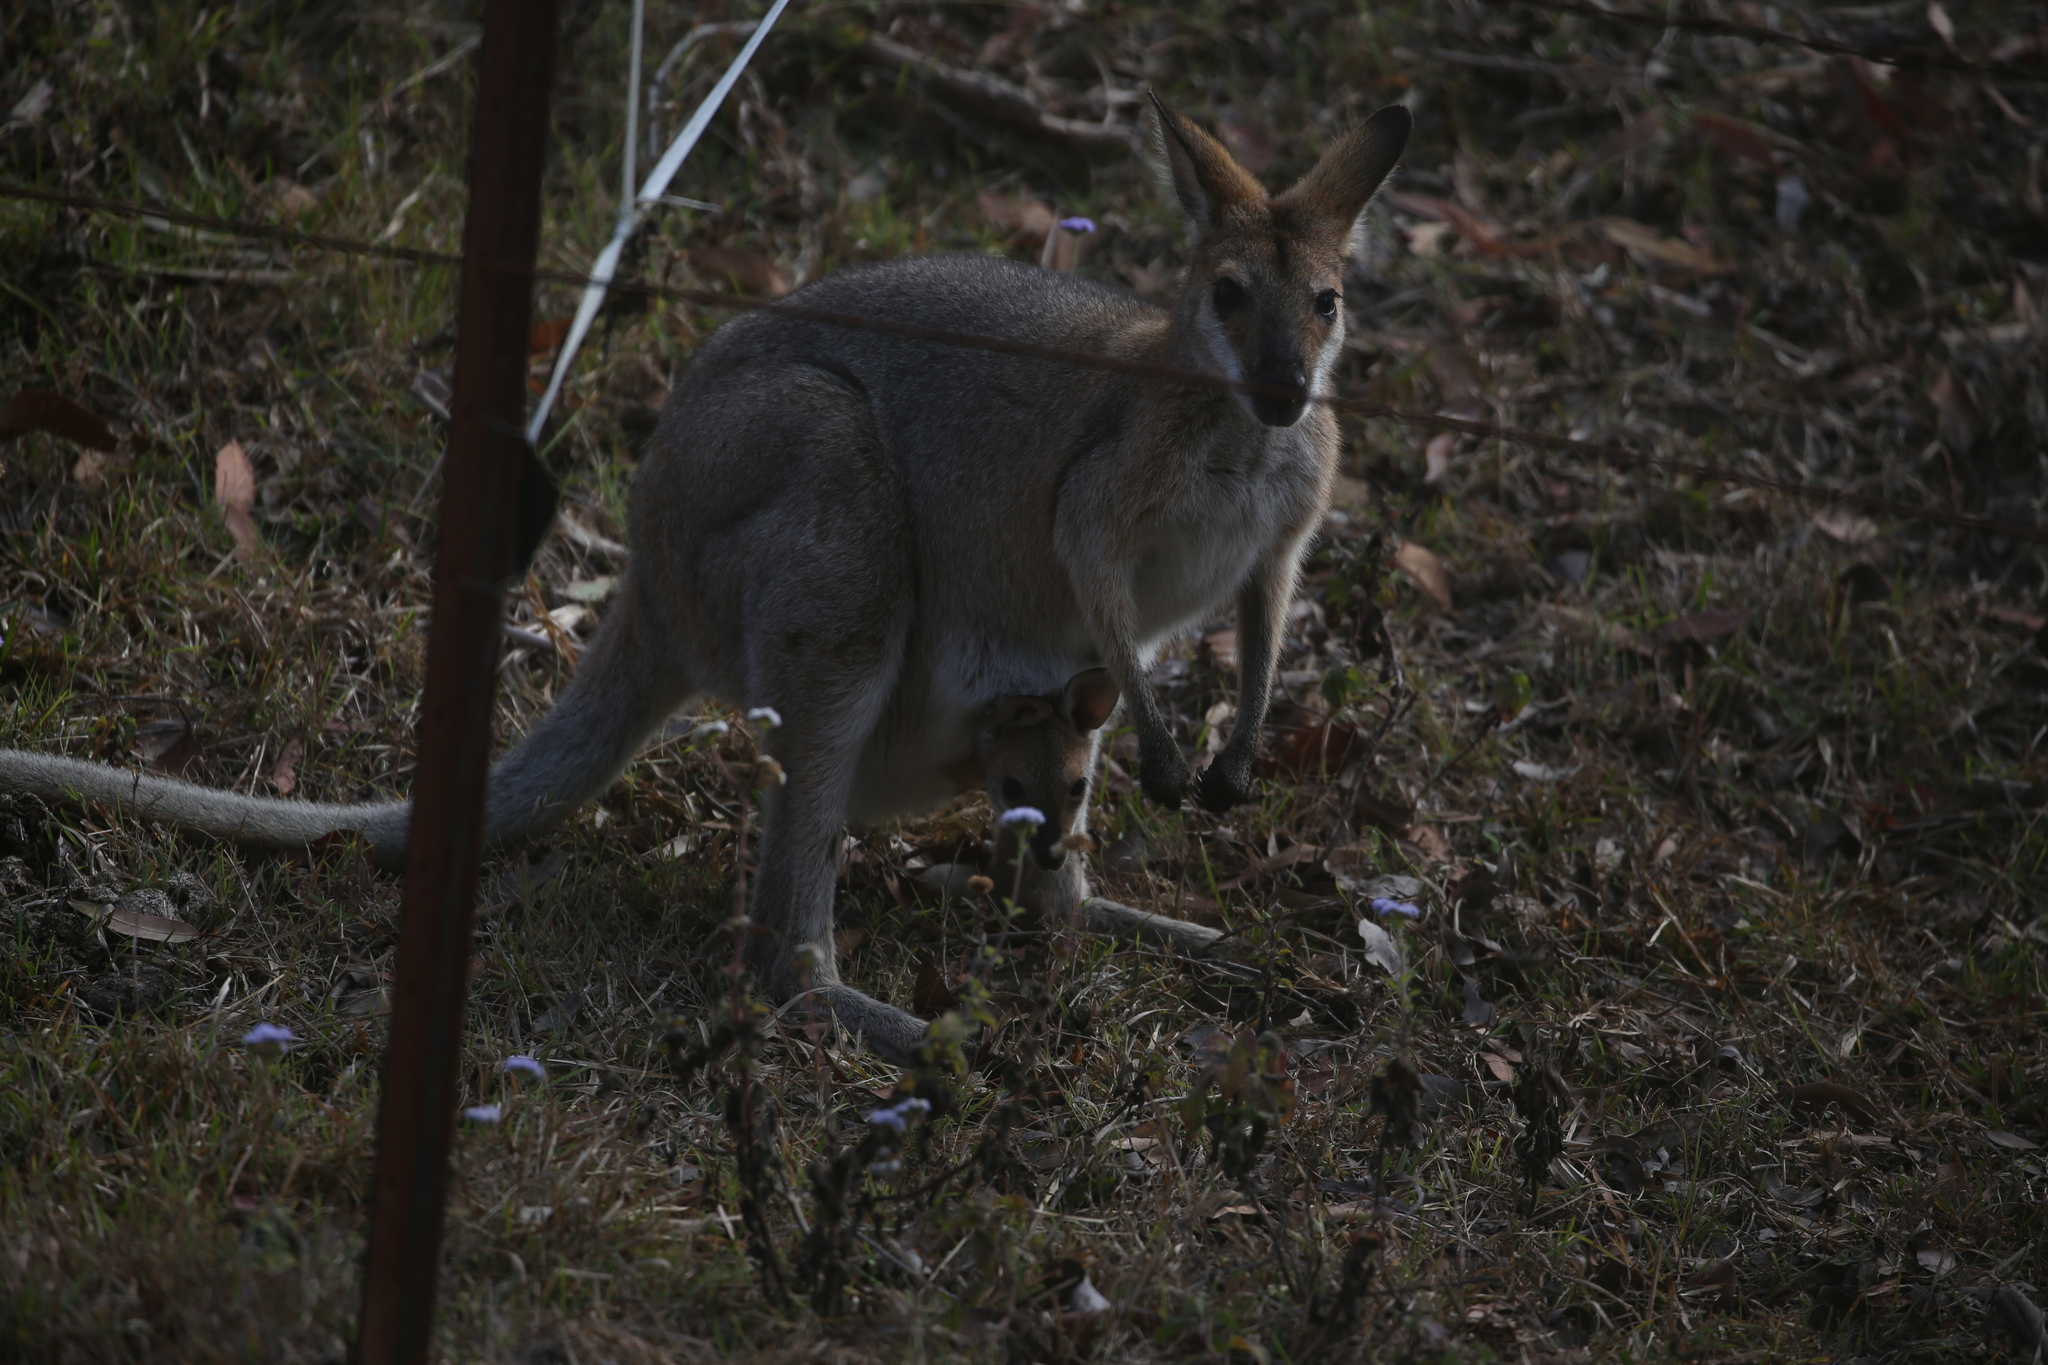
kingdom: Animalia
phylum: Chordata
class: Mammalia
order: Diprotodontia
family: Macropodidae
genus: Notamacropus
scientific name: Notamacropus rufogriseus
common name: Red-necked wallaby
